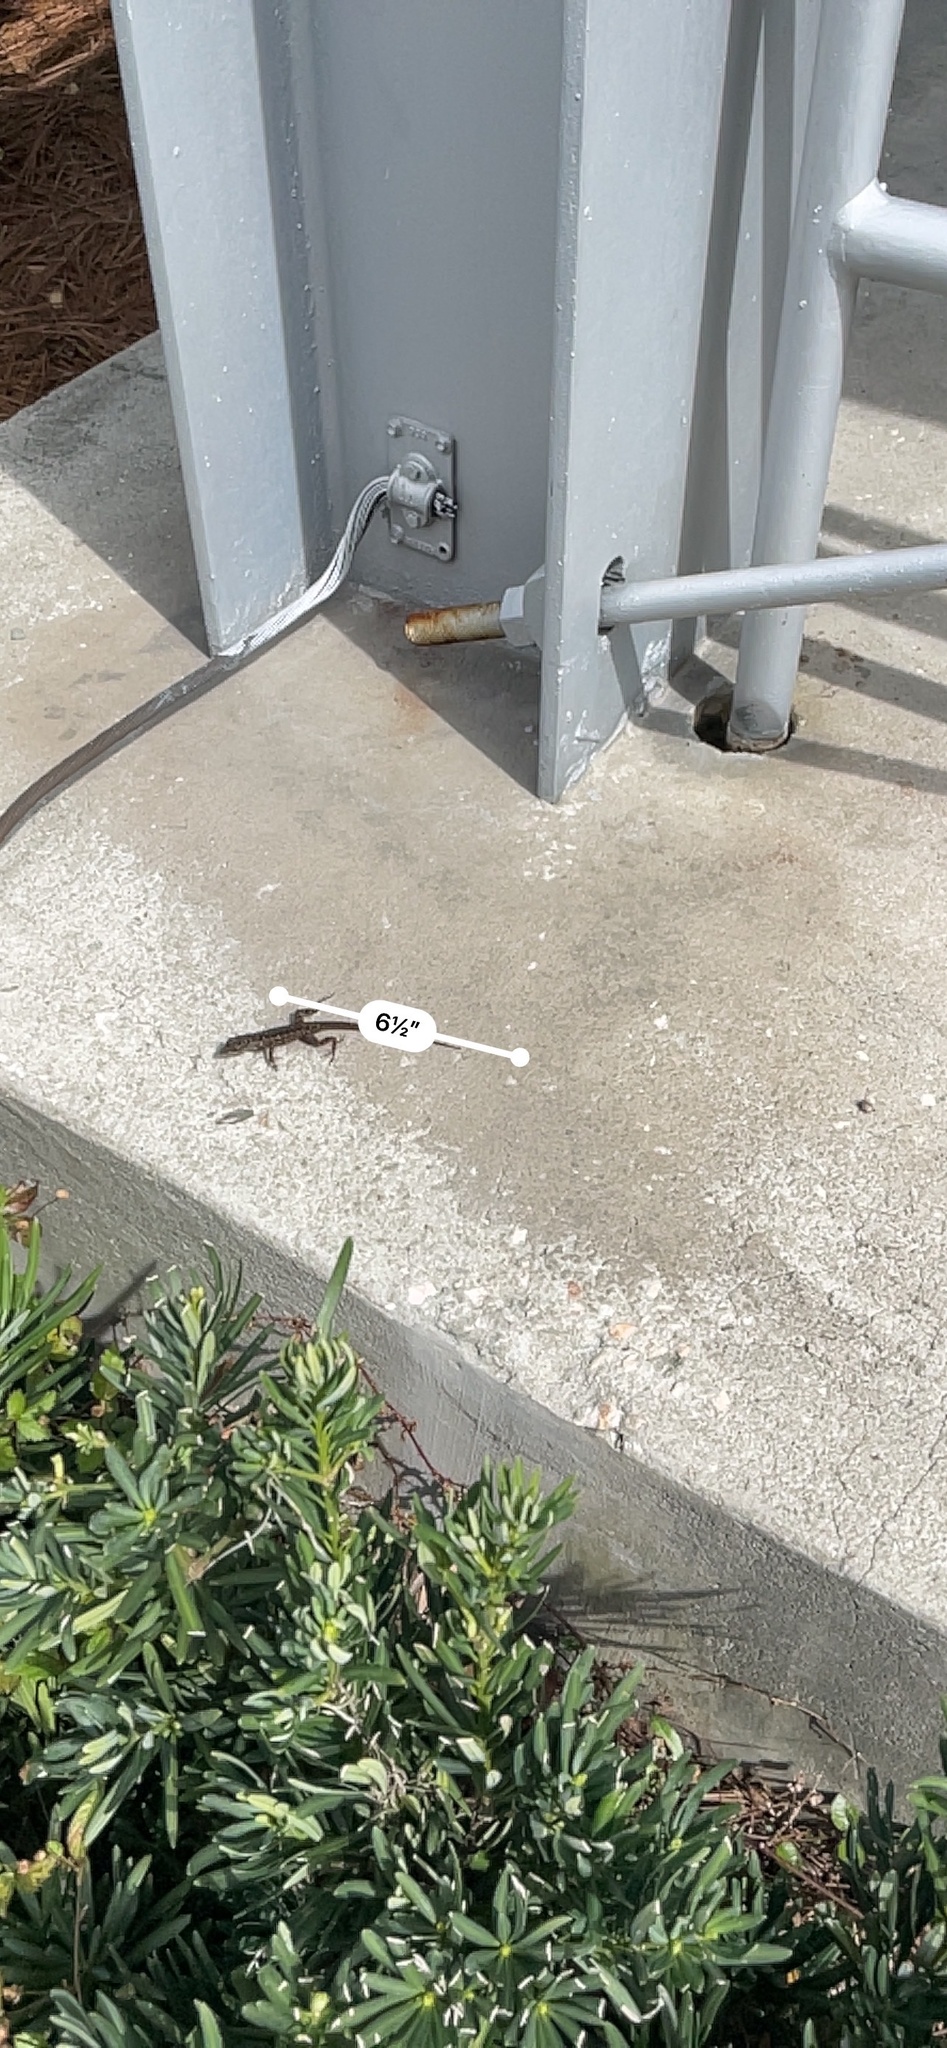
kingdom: Animalia
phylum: Chordata
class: Squamata
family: Dactyloidae
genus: Anolis
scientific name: Anolis sagrei
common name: Brown anole
